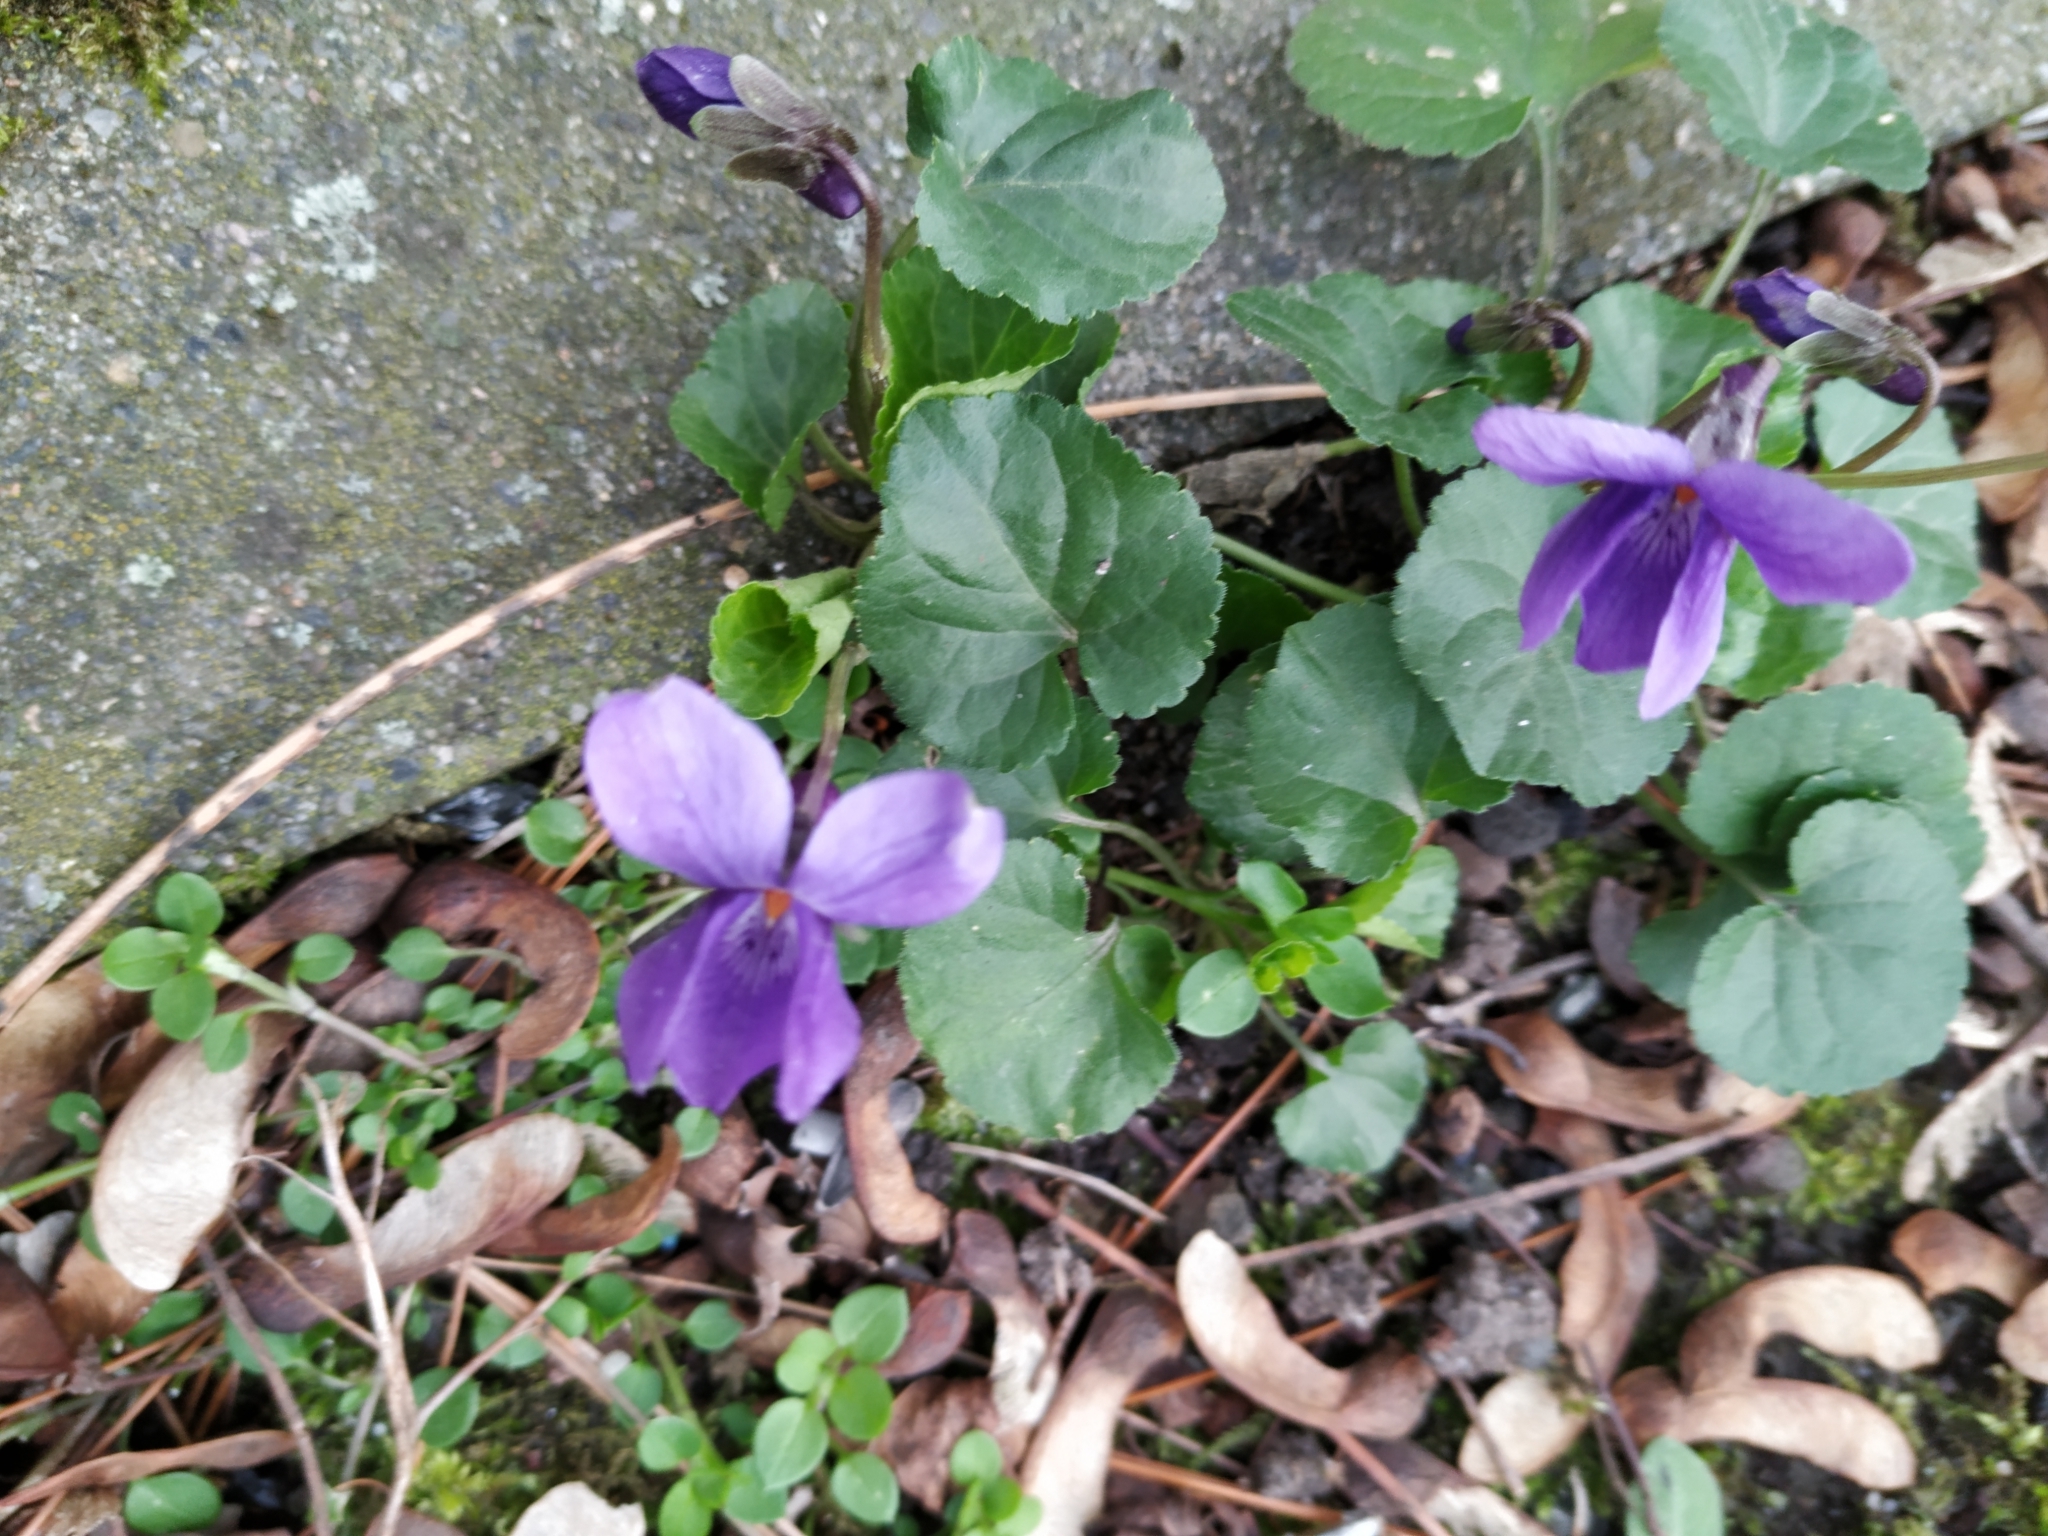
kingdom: Plantae
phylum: Tracheophyta
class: Magnoliopsida
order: Malpighiales
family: Violaceae
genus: Viola
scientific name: Viola odorata
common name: Sweet violet
